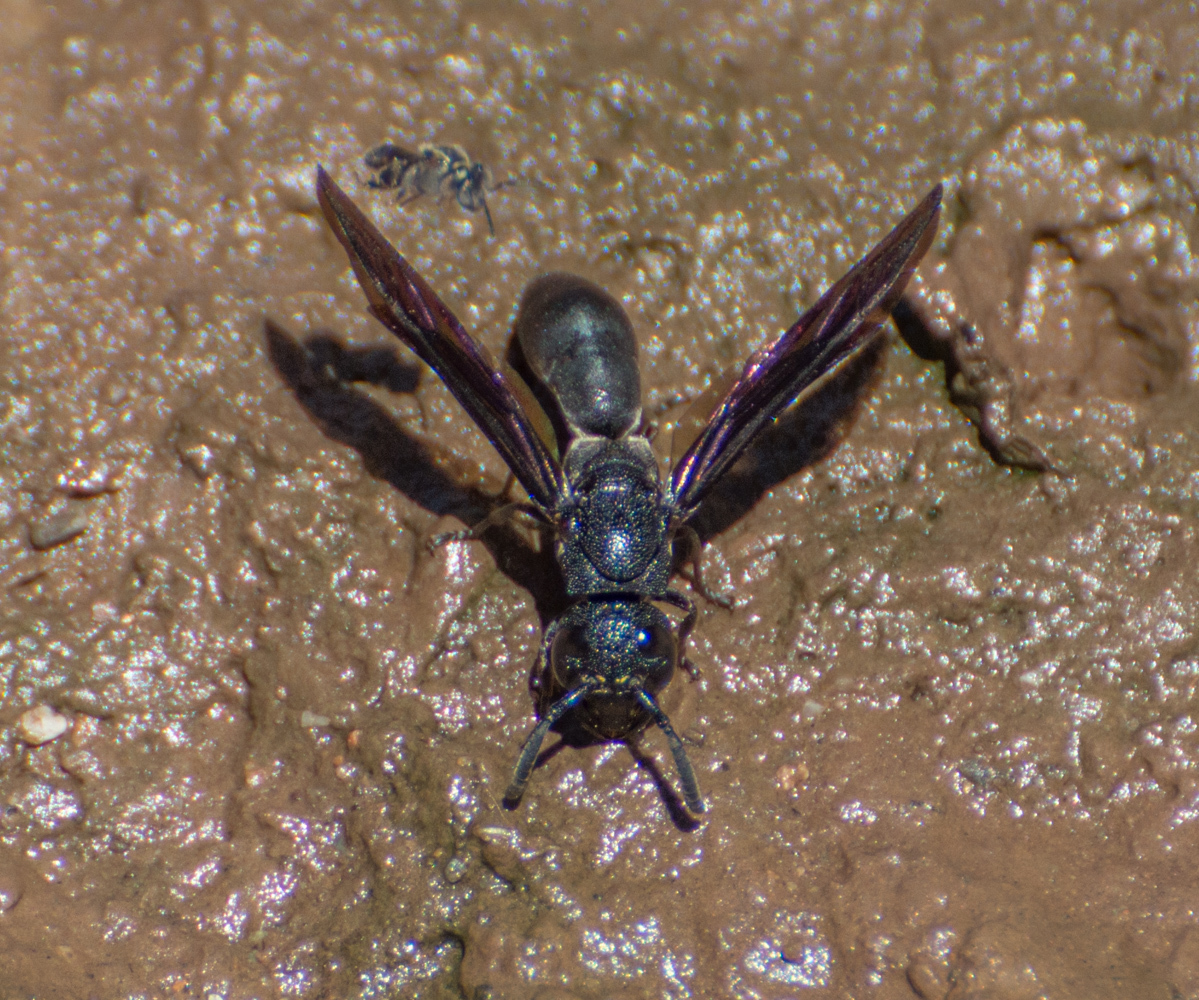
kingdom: Animalia
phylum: Arthropoda
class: Insecta
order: Hymenoptera
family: Eumenidae
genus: Plagiolabra
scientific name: Plagiolabra nigra
